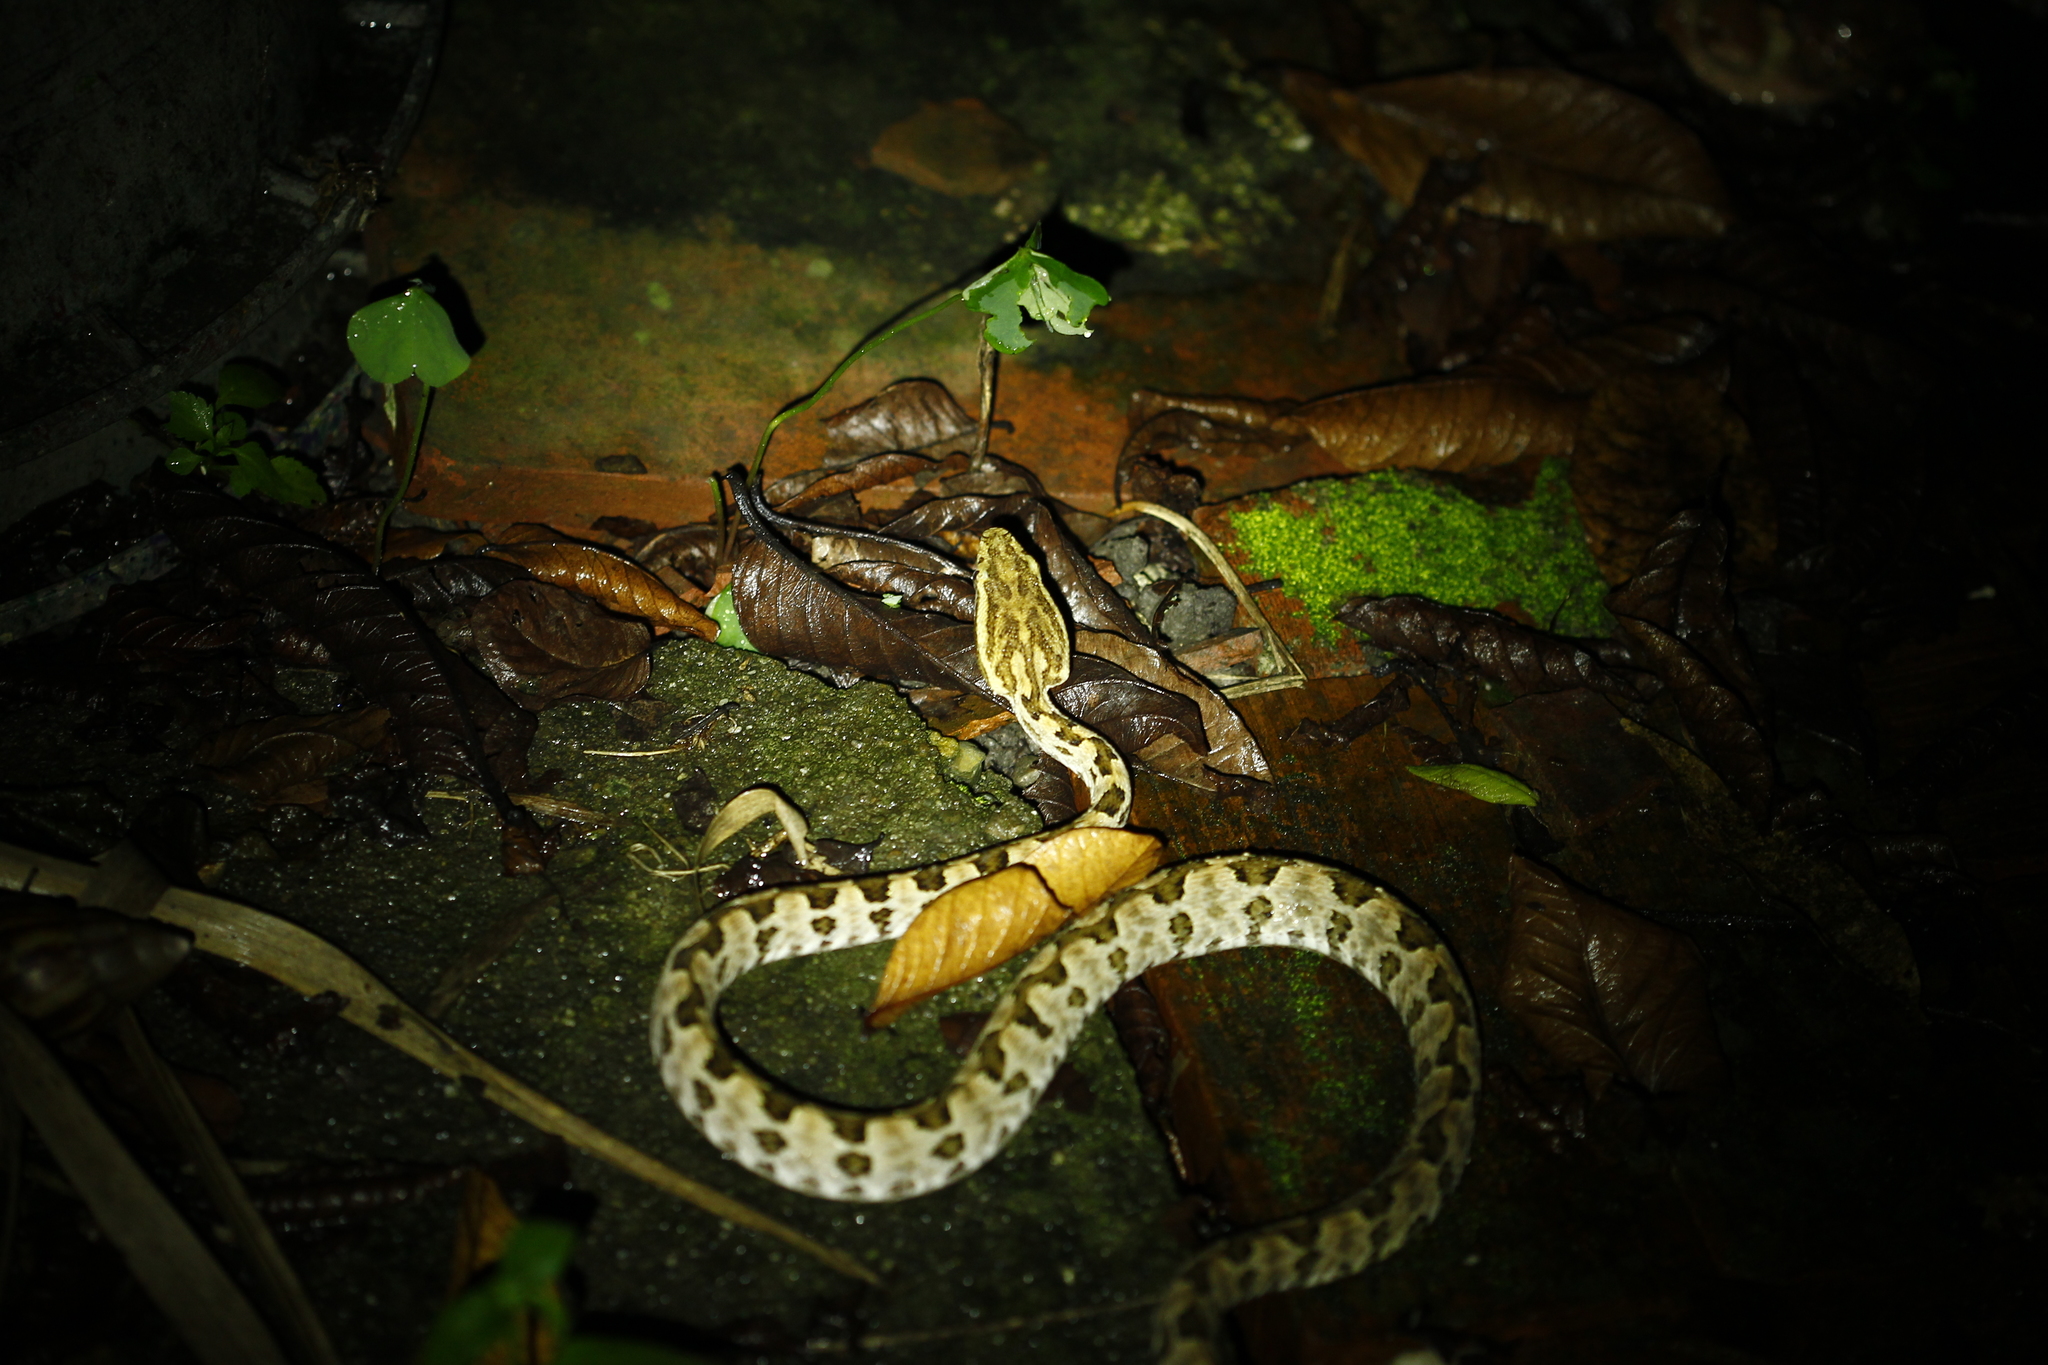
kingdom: Animalia
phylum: Chordata
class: Squamata
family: Viperidae
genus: Protobothrops
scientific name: Protobothrops mucrosquamatus
